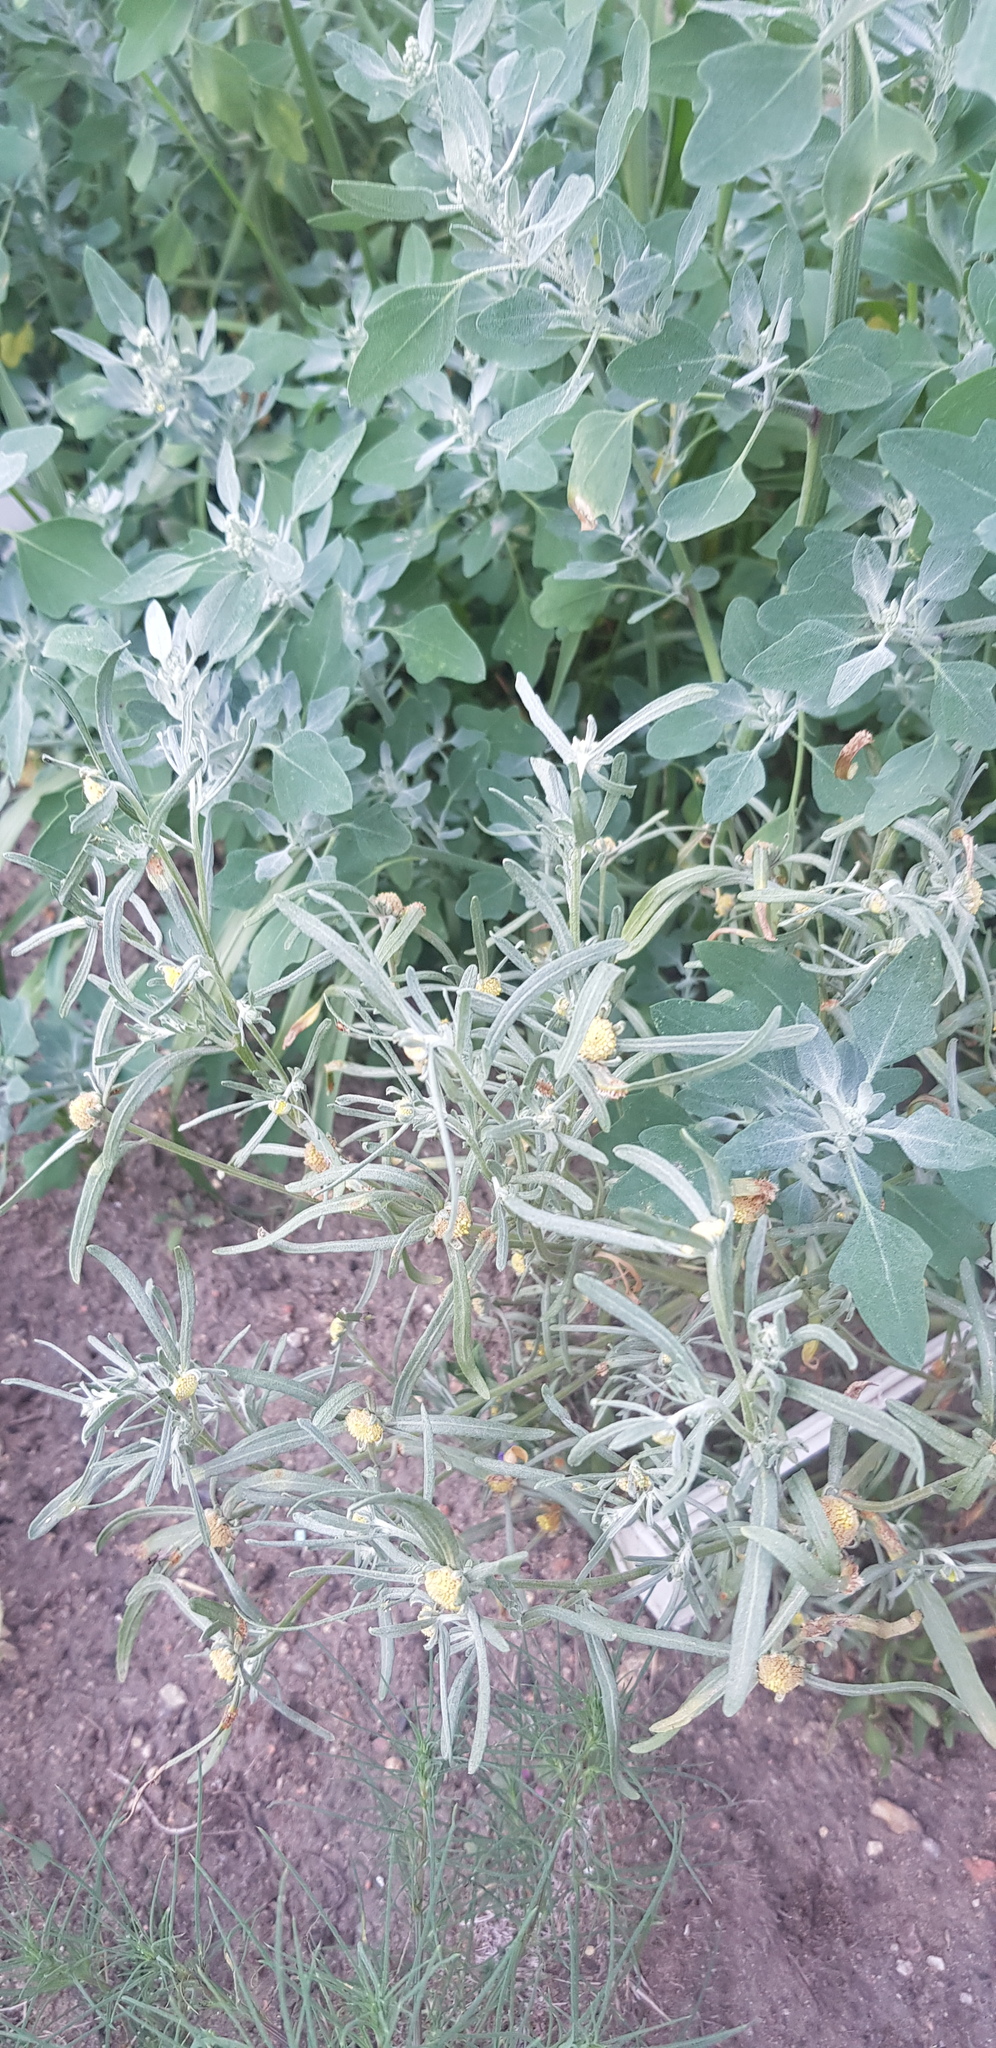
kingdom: Plantae
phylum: Tracheophyta
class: Magnoliopsida
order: Caryophyllales
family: Amaranthaceae
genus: Bassia
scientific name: Bassia scoparia
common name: Belvedere
